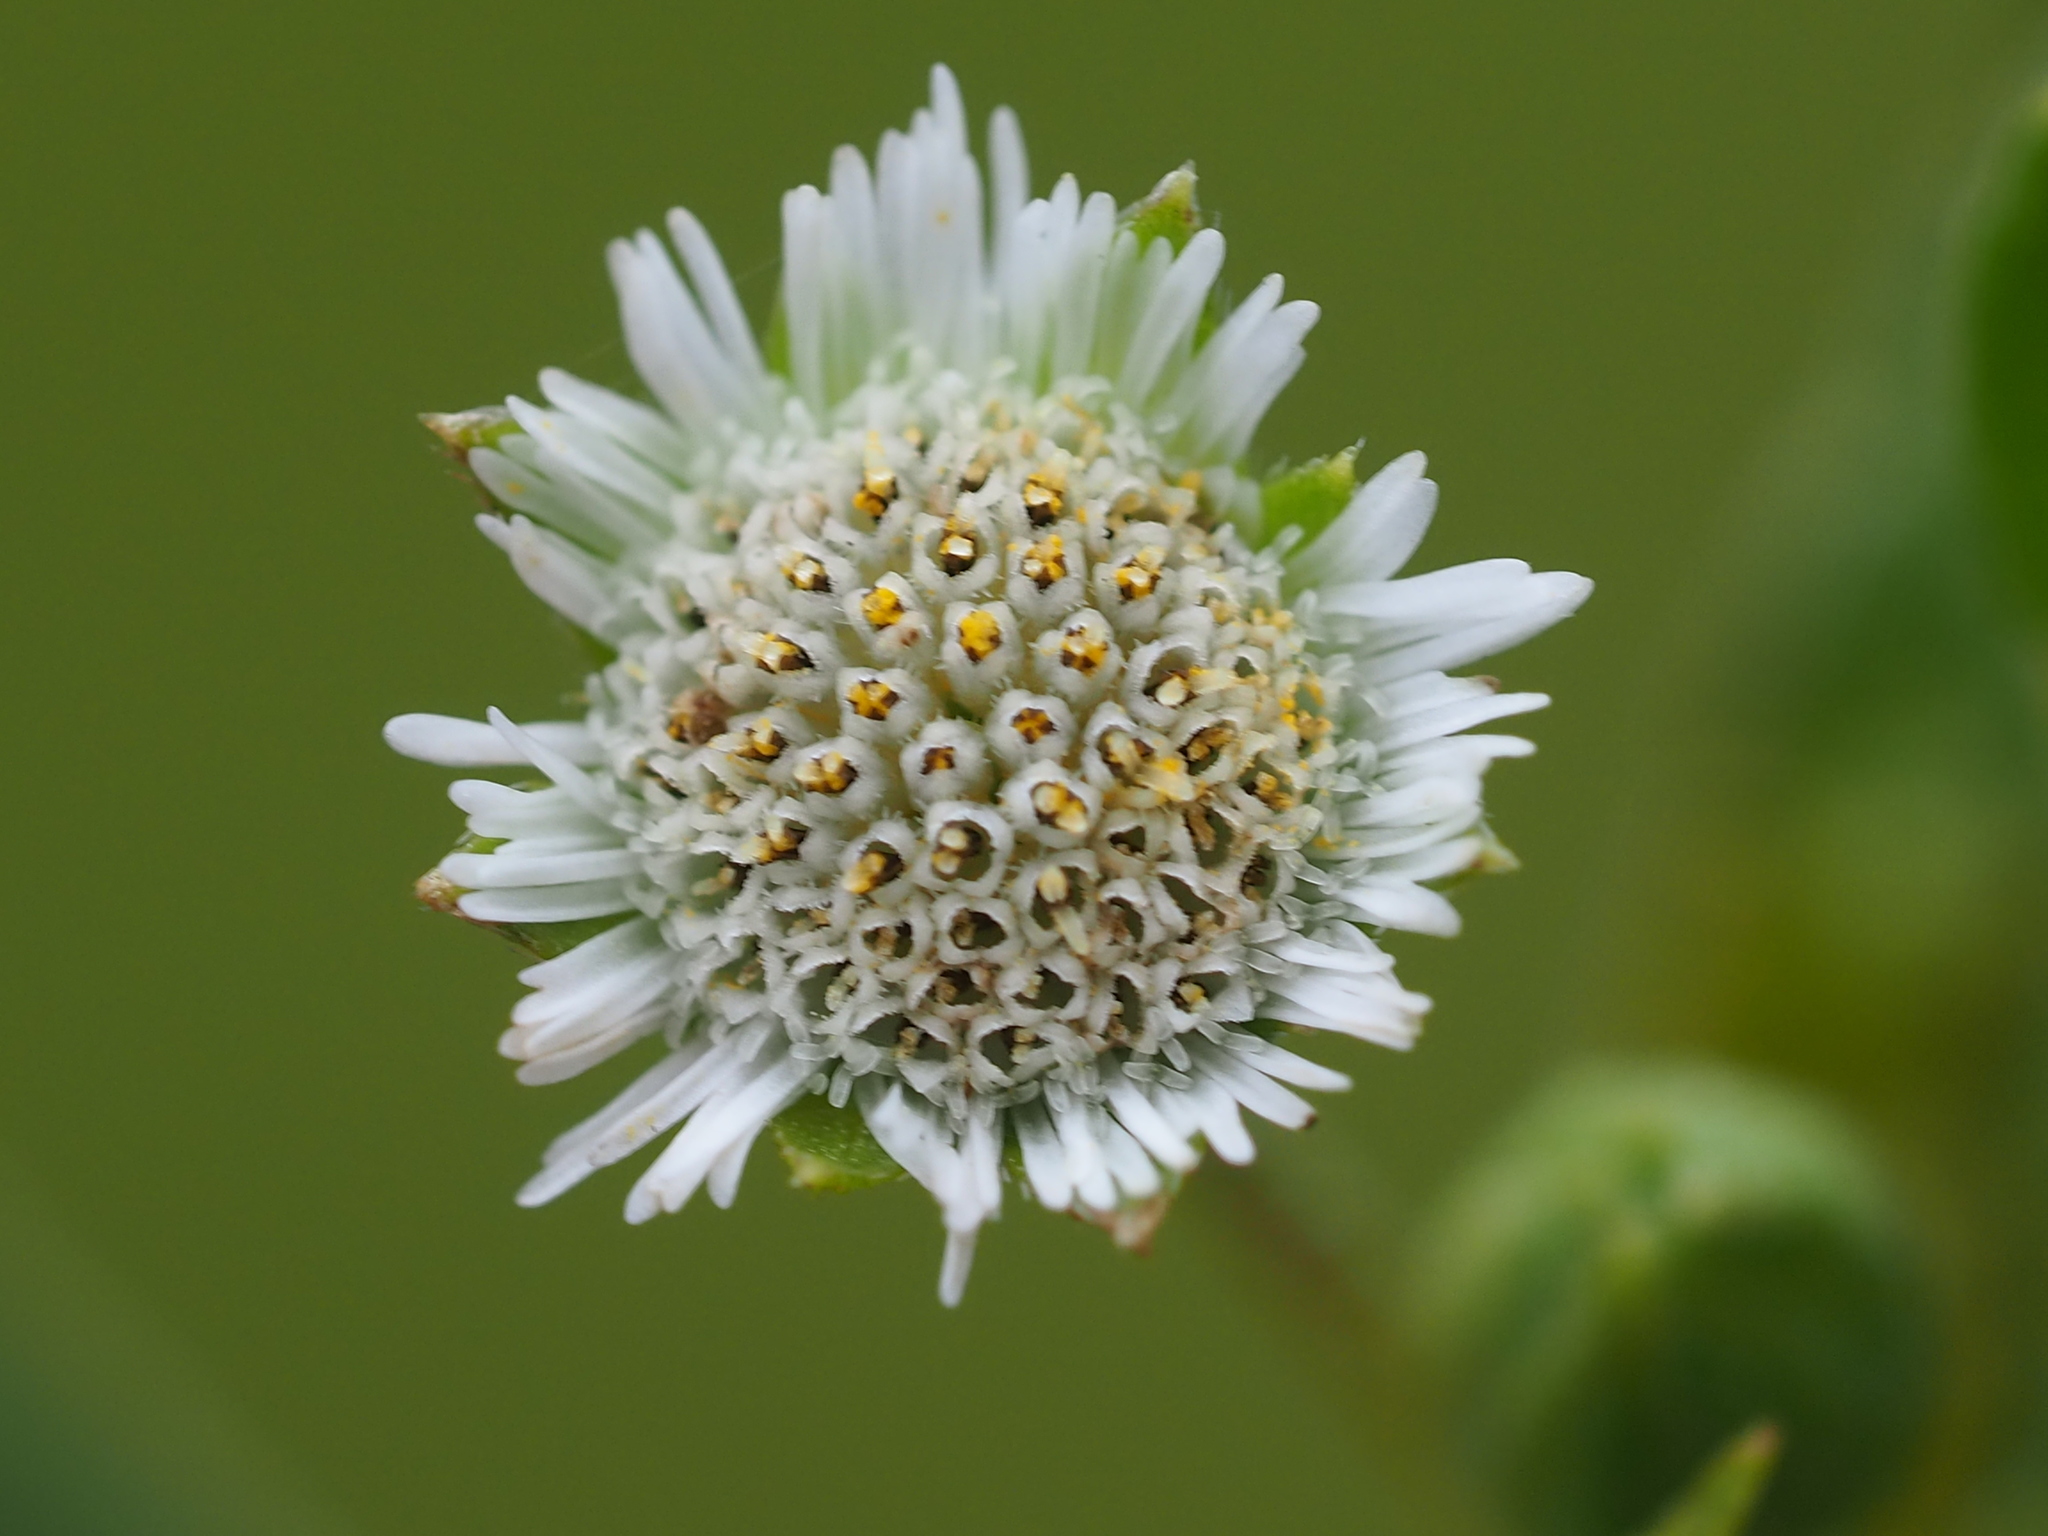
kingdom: Plantae
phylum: Tracheophyta
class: Magnoliopsida
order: Asterales
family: Asteraceae
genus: Eclipta
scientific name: Eclipta prostrata
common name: False daisy
